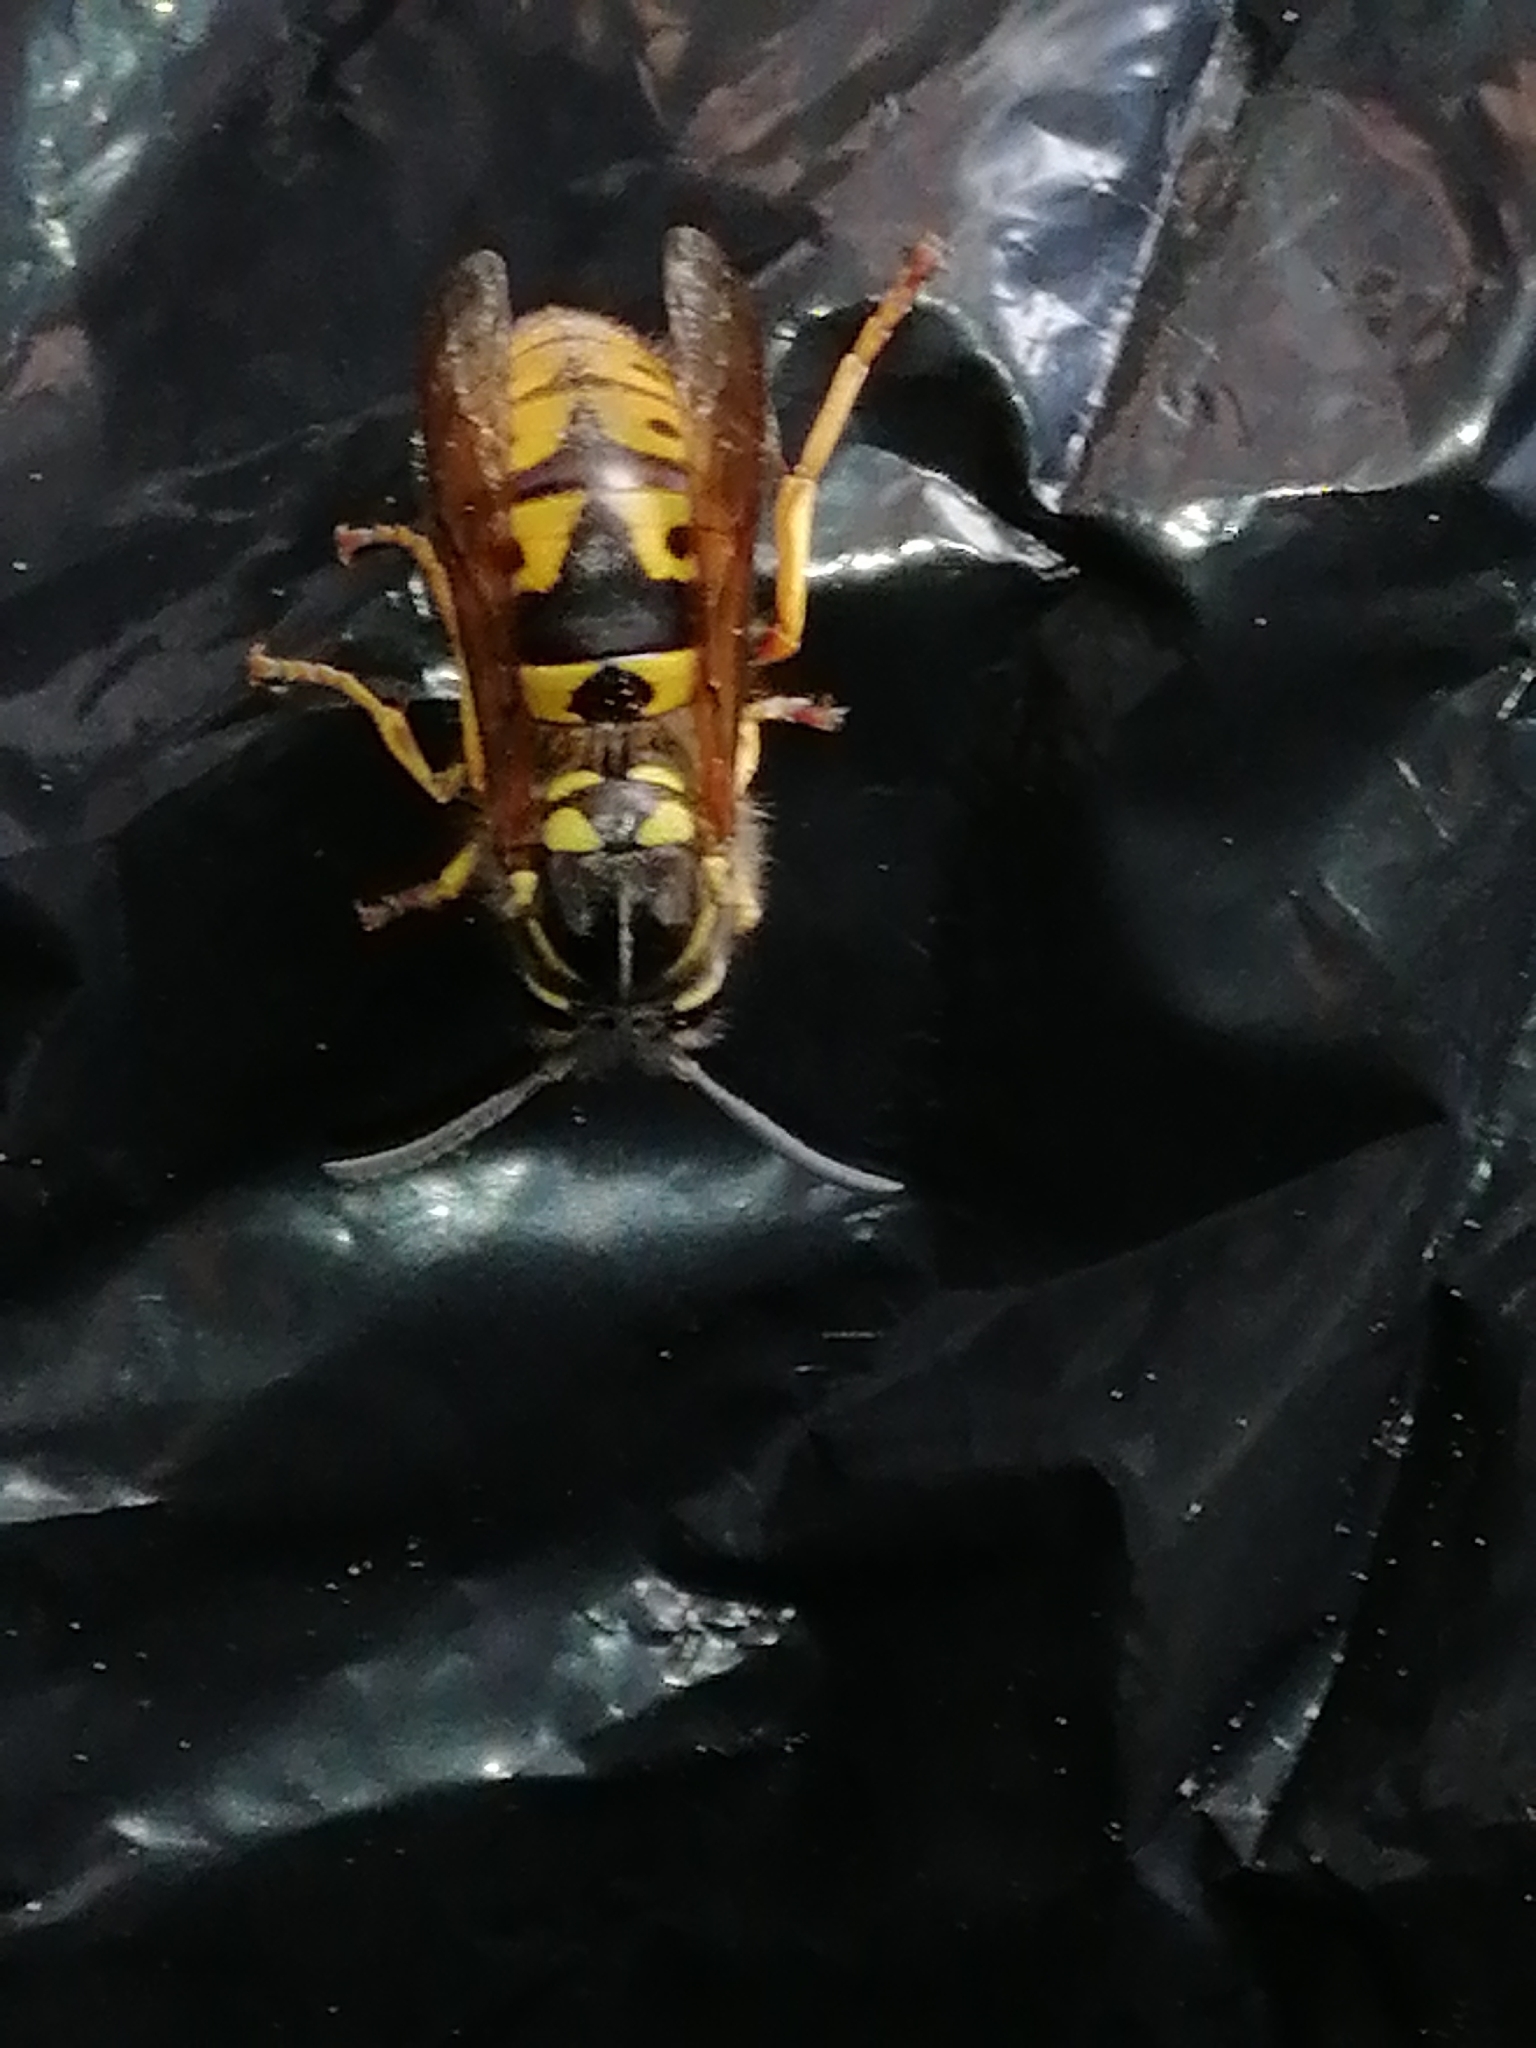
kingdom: Animalia
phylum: Arthropoda
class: Insecta
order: Hymenoptera
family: Vespidae
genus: Vespula
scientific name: Vespula germanica
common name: German wasp
